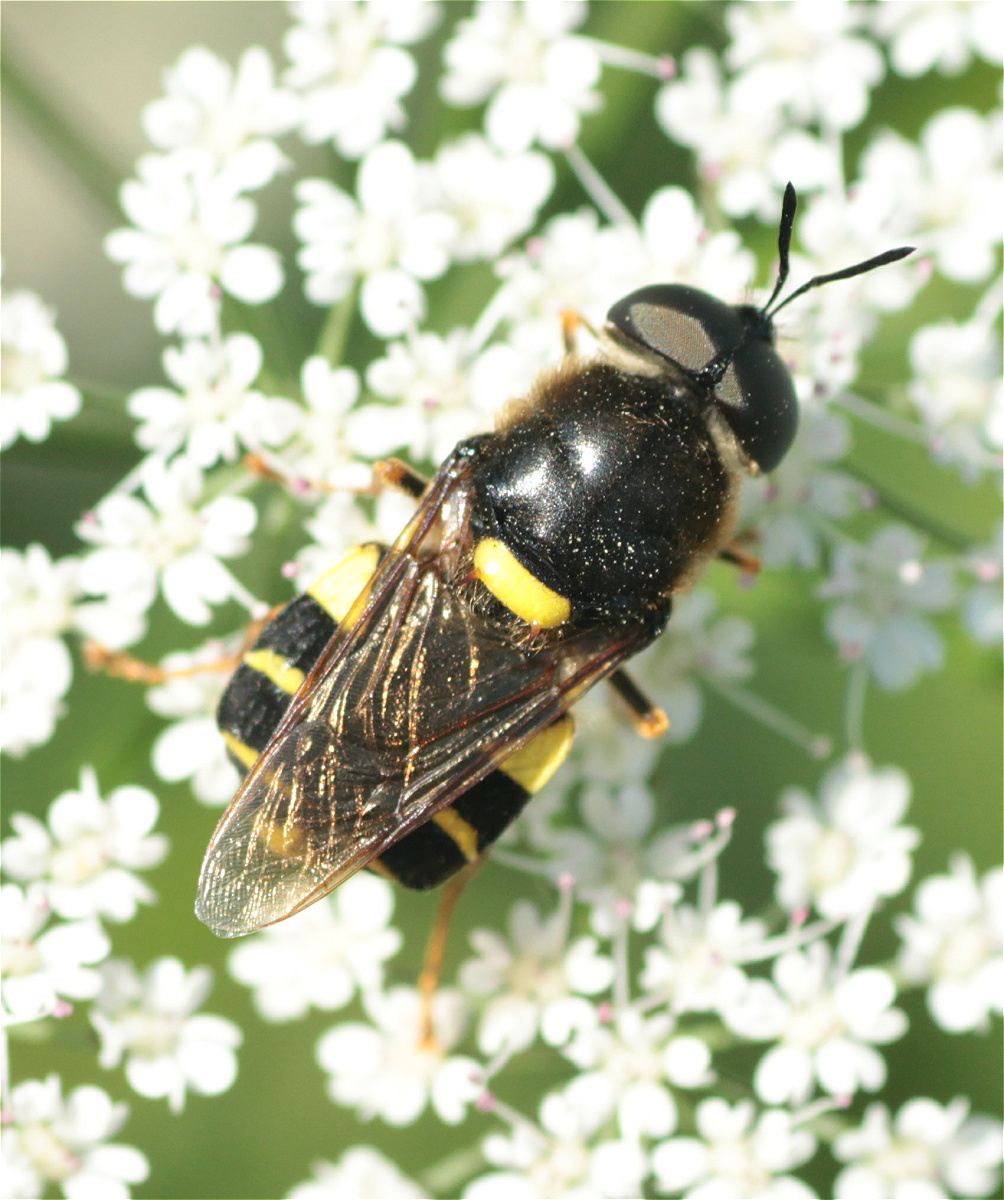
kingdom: Animalia
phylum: Arthropoda
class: Insecta
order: Diptera
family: Stratiomyidae
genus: Stratiomys
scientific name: Stratiomys potamida
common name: Banded general
